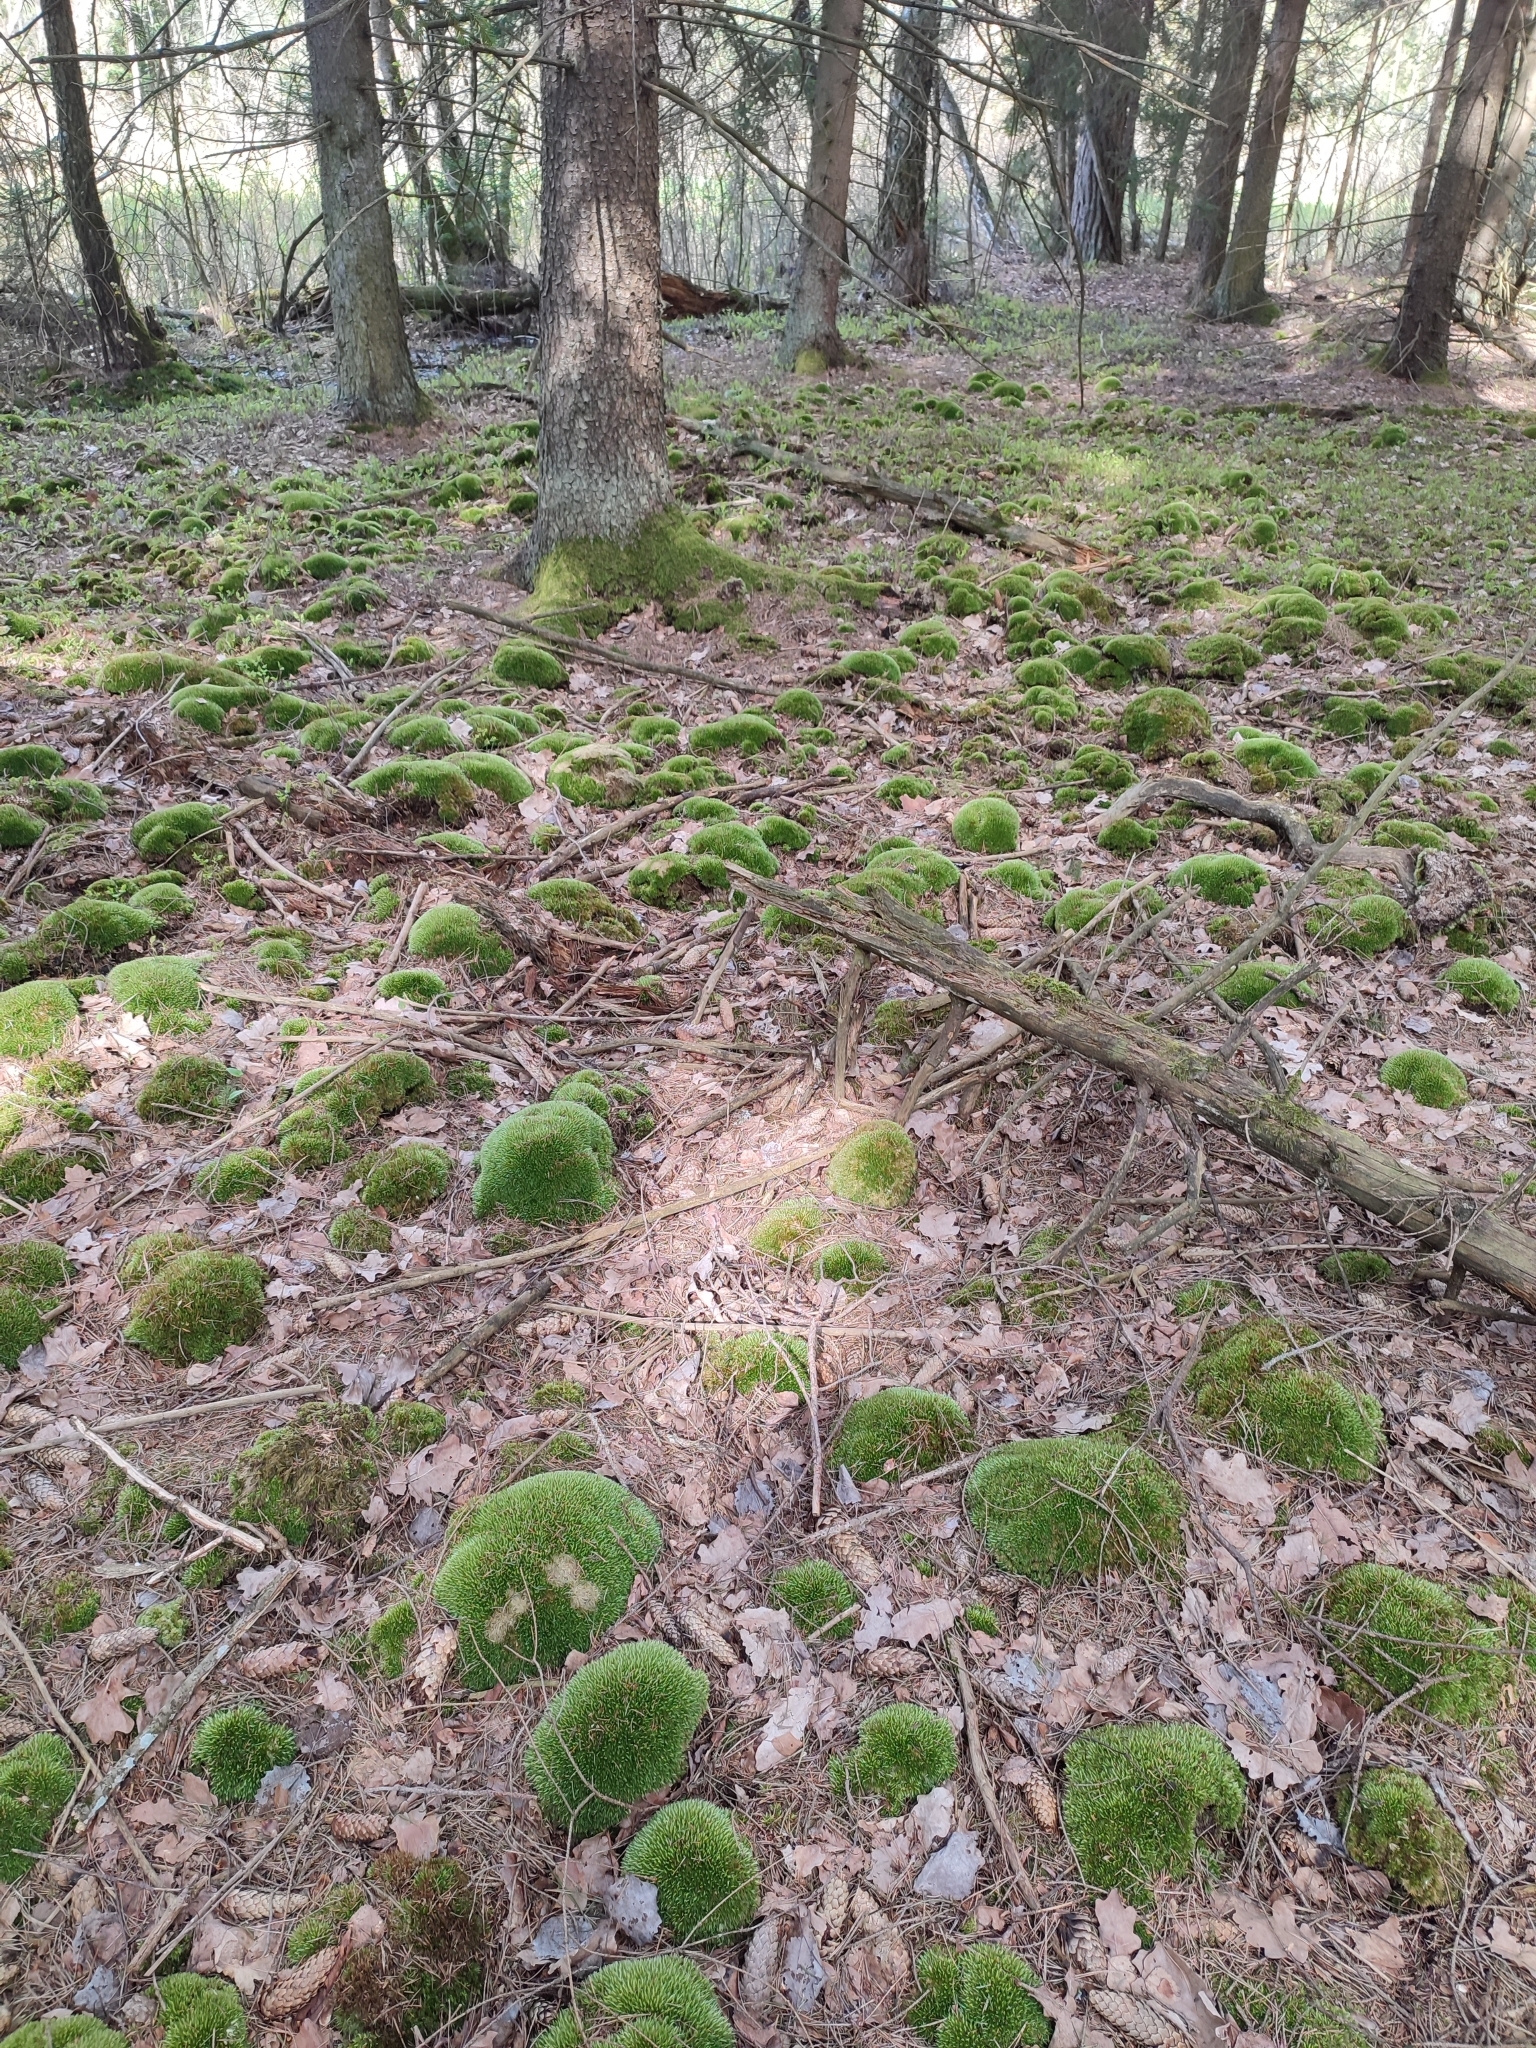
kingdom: Plantae
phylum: Bryophyta
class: Bryopsida
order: Dicranales
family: Leucobryaceae
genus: Leucobryum
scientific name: Leucobryum glaucum
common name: Large white-moss
